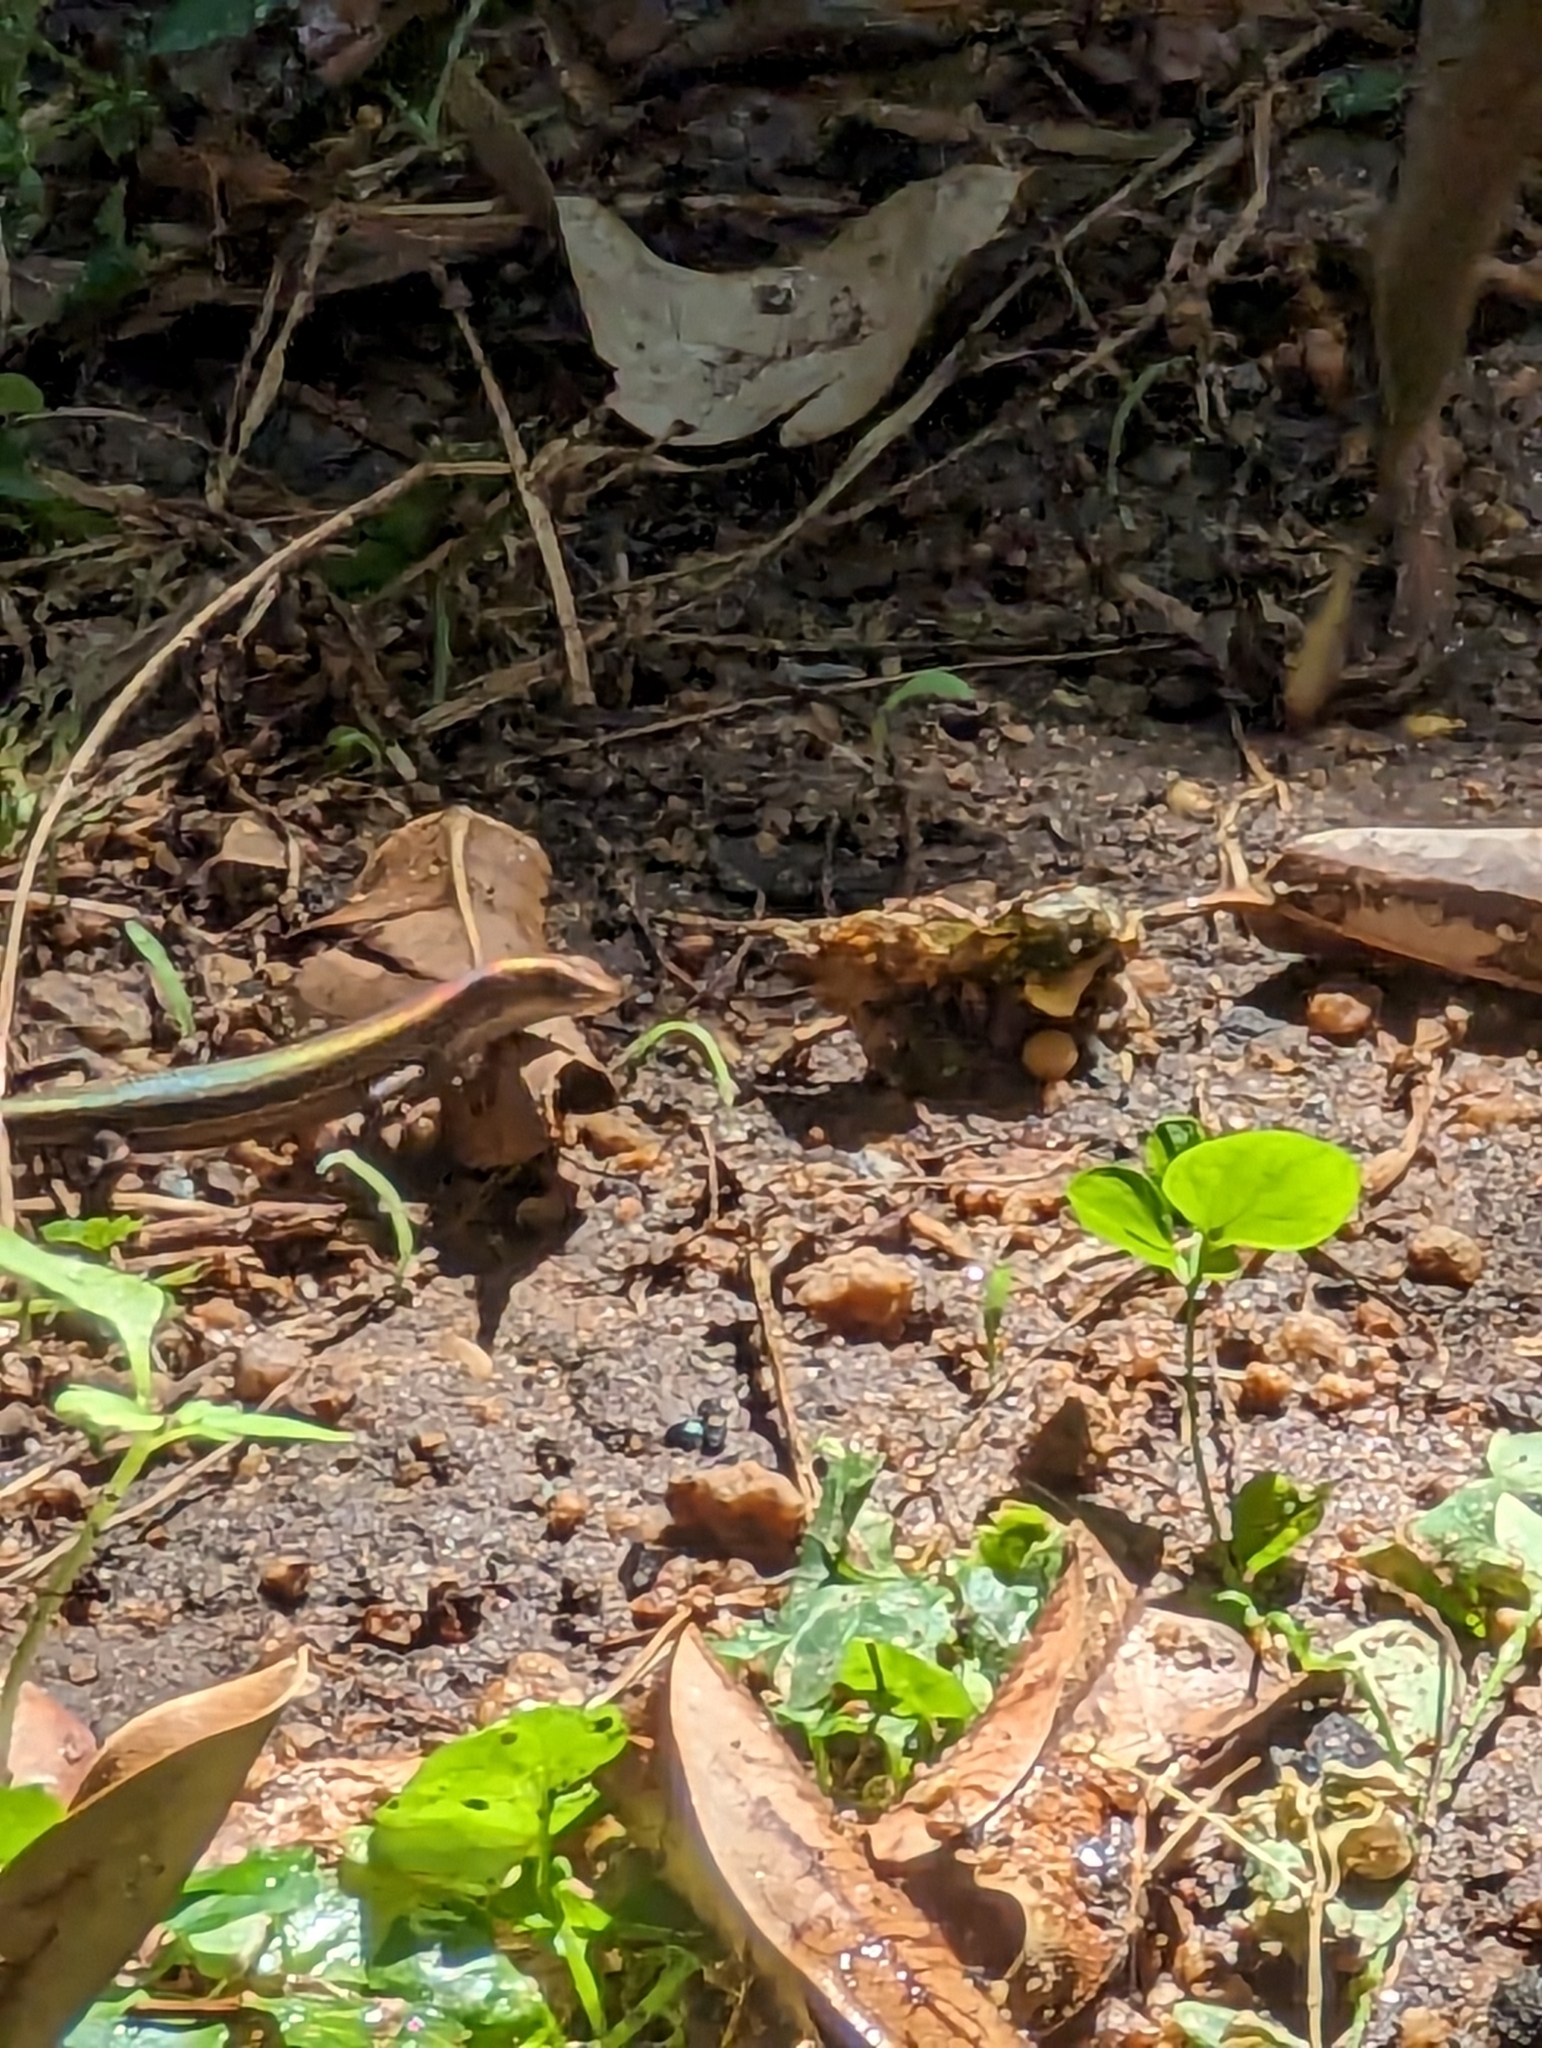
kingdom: Animalia
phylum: Chordata
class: Squamata
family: Scincidae
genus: Lampropholis
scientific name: Lampropholis delicata
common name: Plague skink
